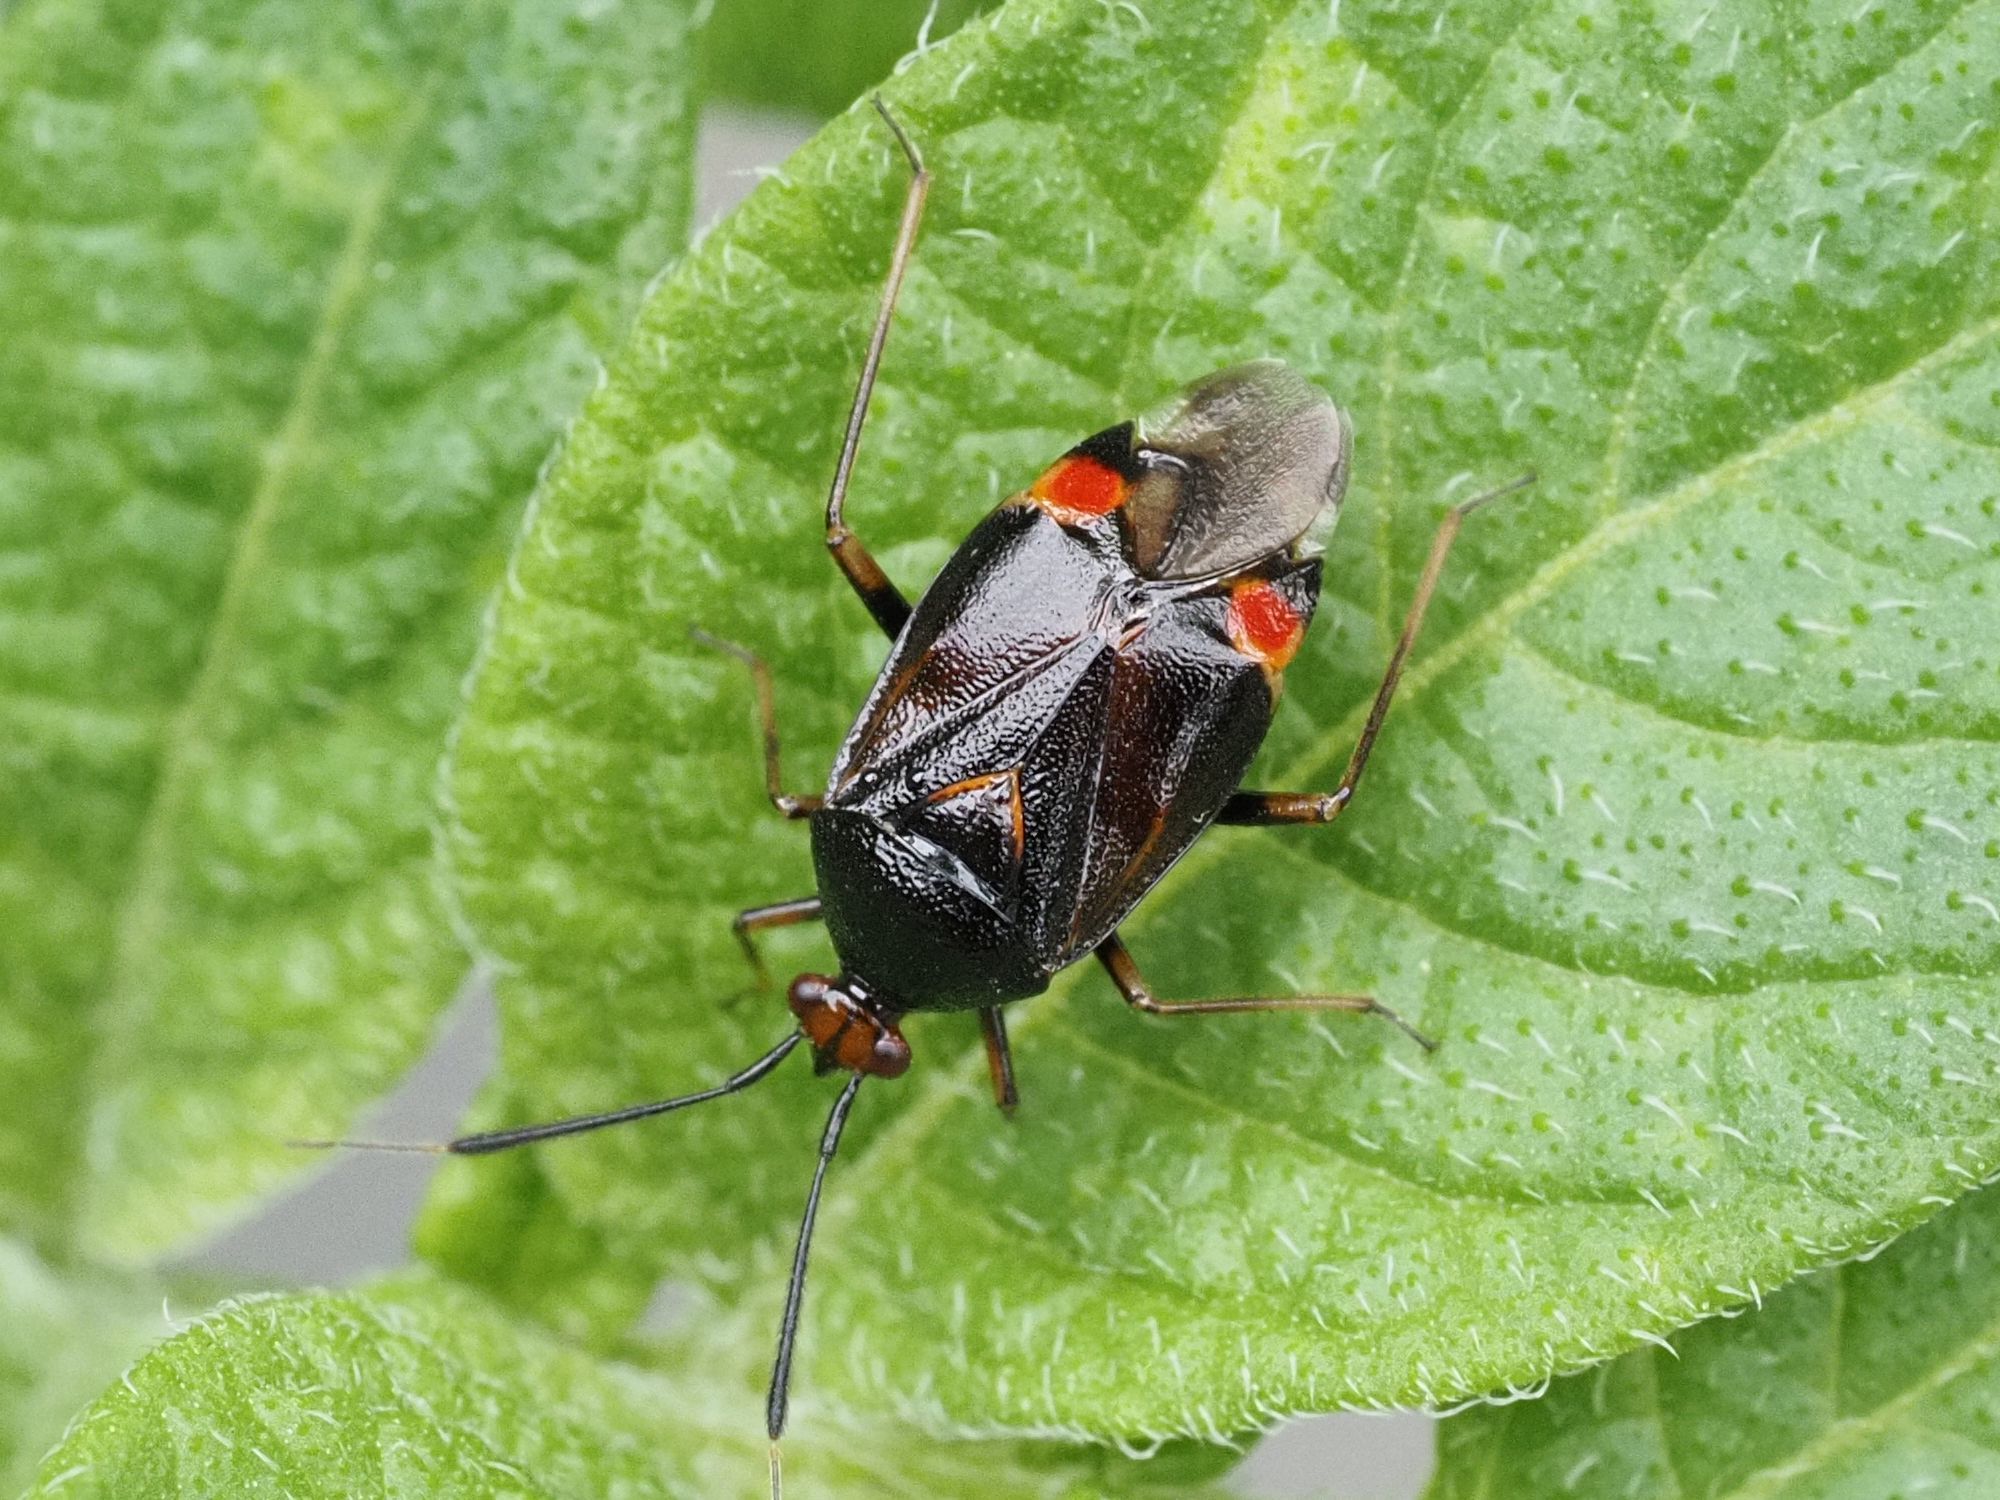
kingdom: Animalia
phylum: Arthropoda
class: Insecta
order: Hemiptera
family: Miridae
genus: Deraeocoris
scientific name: Deraeocoris ruber
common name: Plant bug
